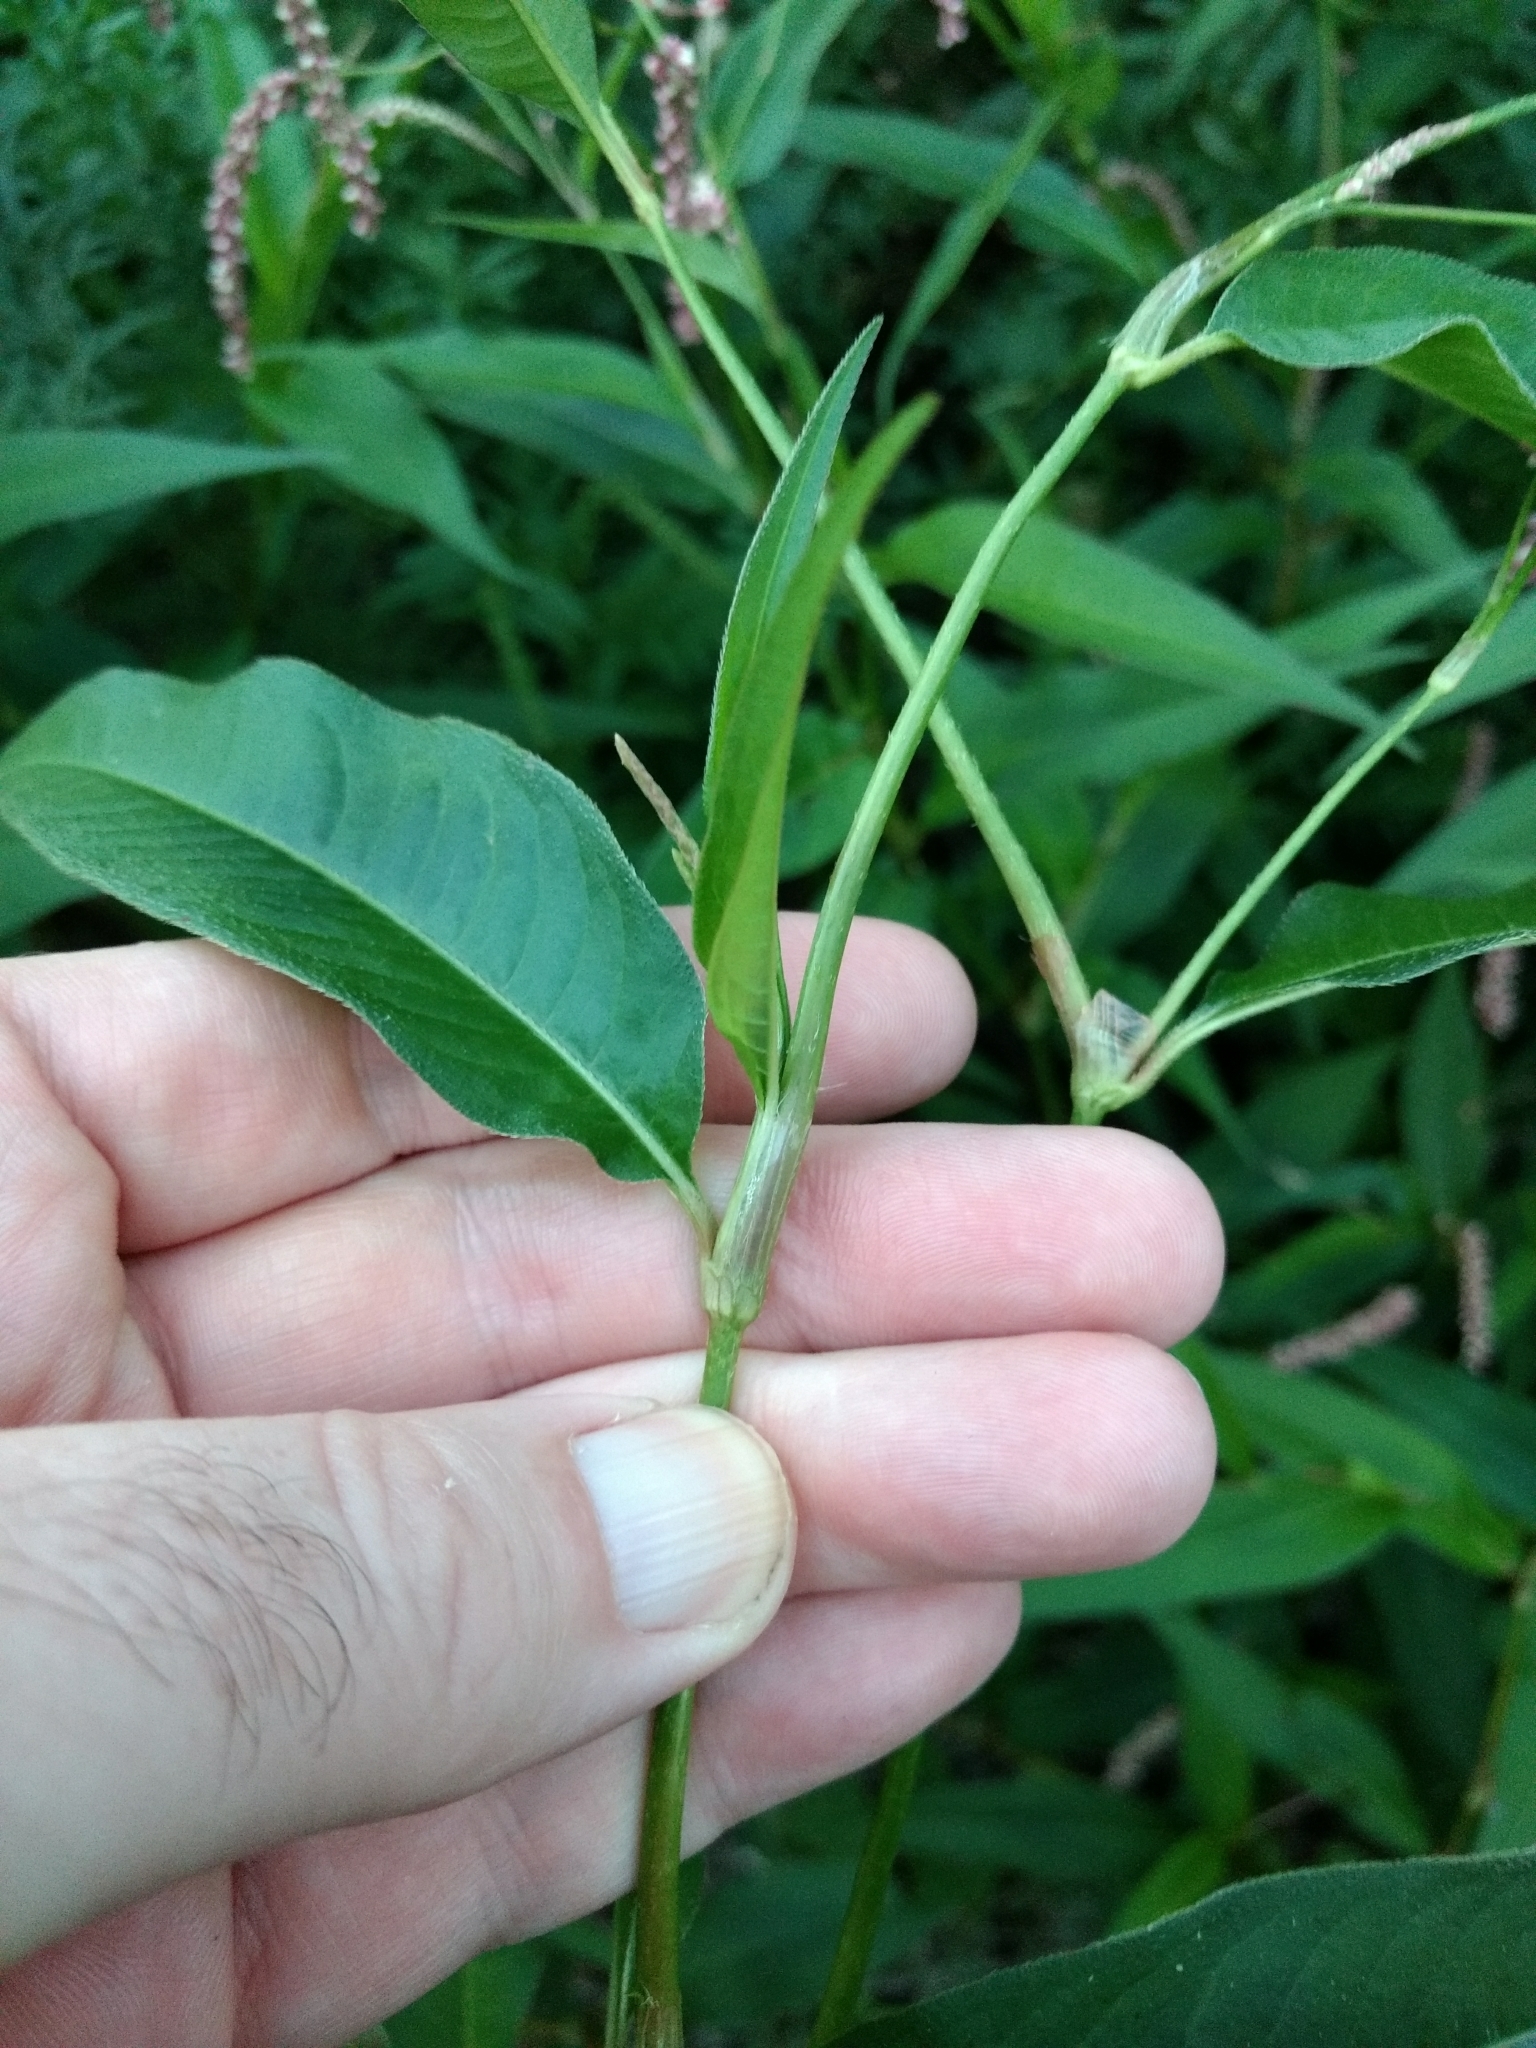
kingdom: Plantae
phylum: Tracheophyta
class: Magnoliopsida
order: Caryophyllales
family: Polygonaceae
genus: Persicaria
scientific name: Persicaria lapathifolia
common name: Curlytop knotweed
